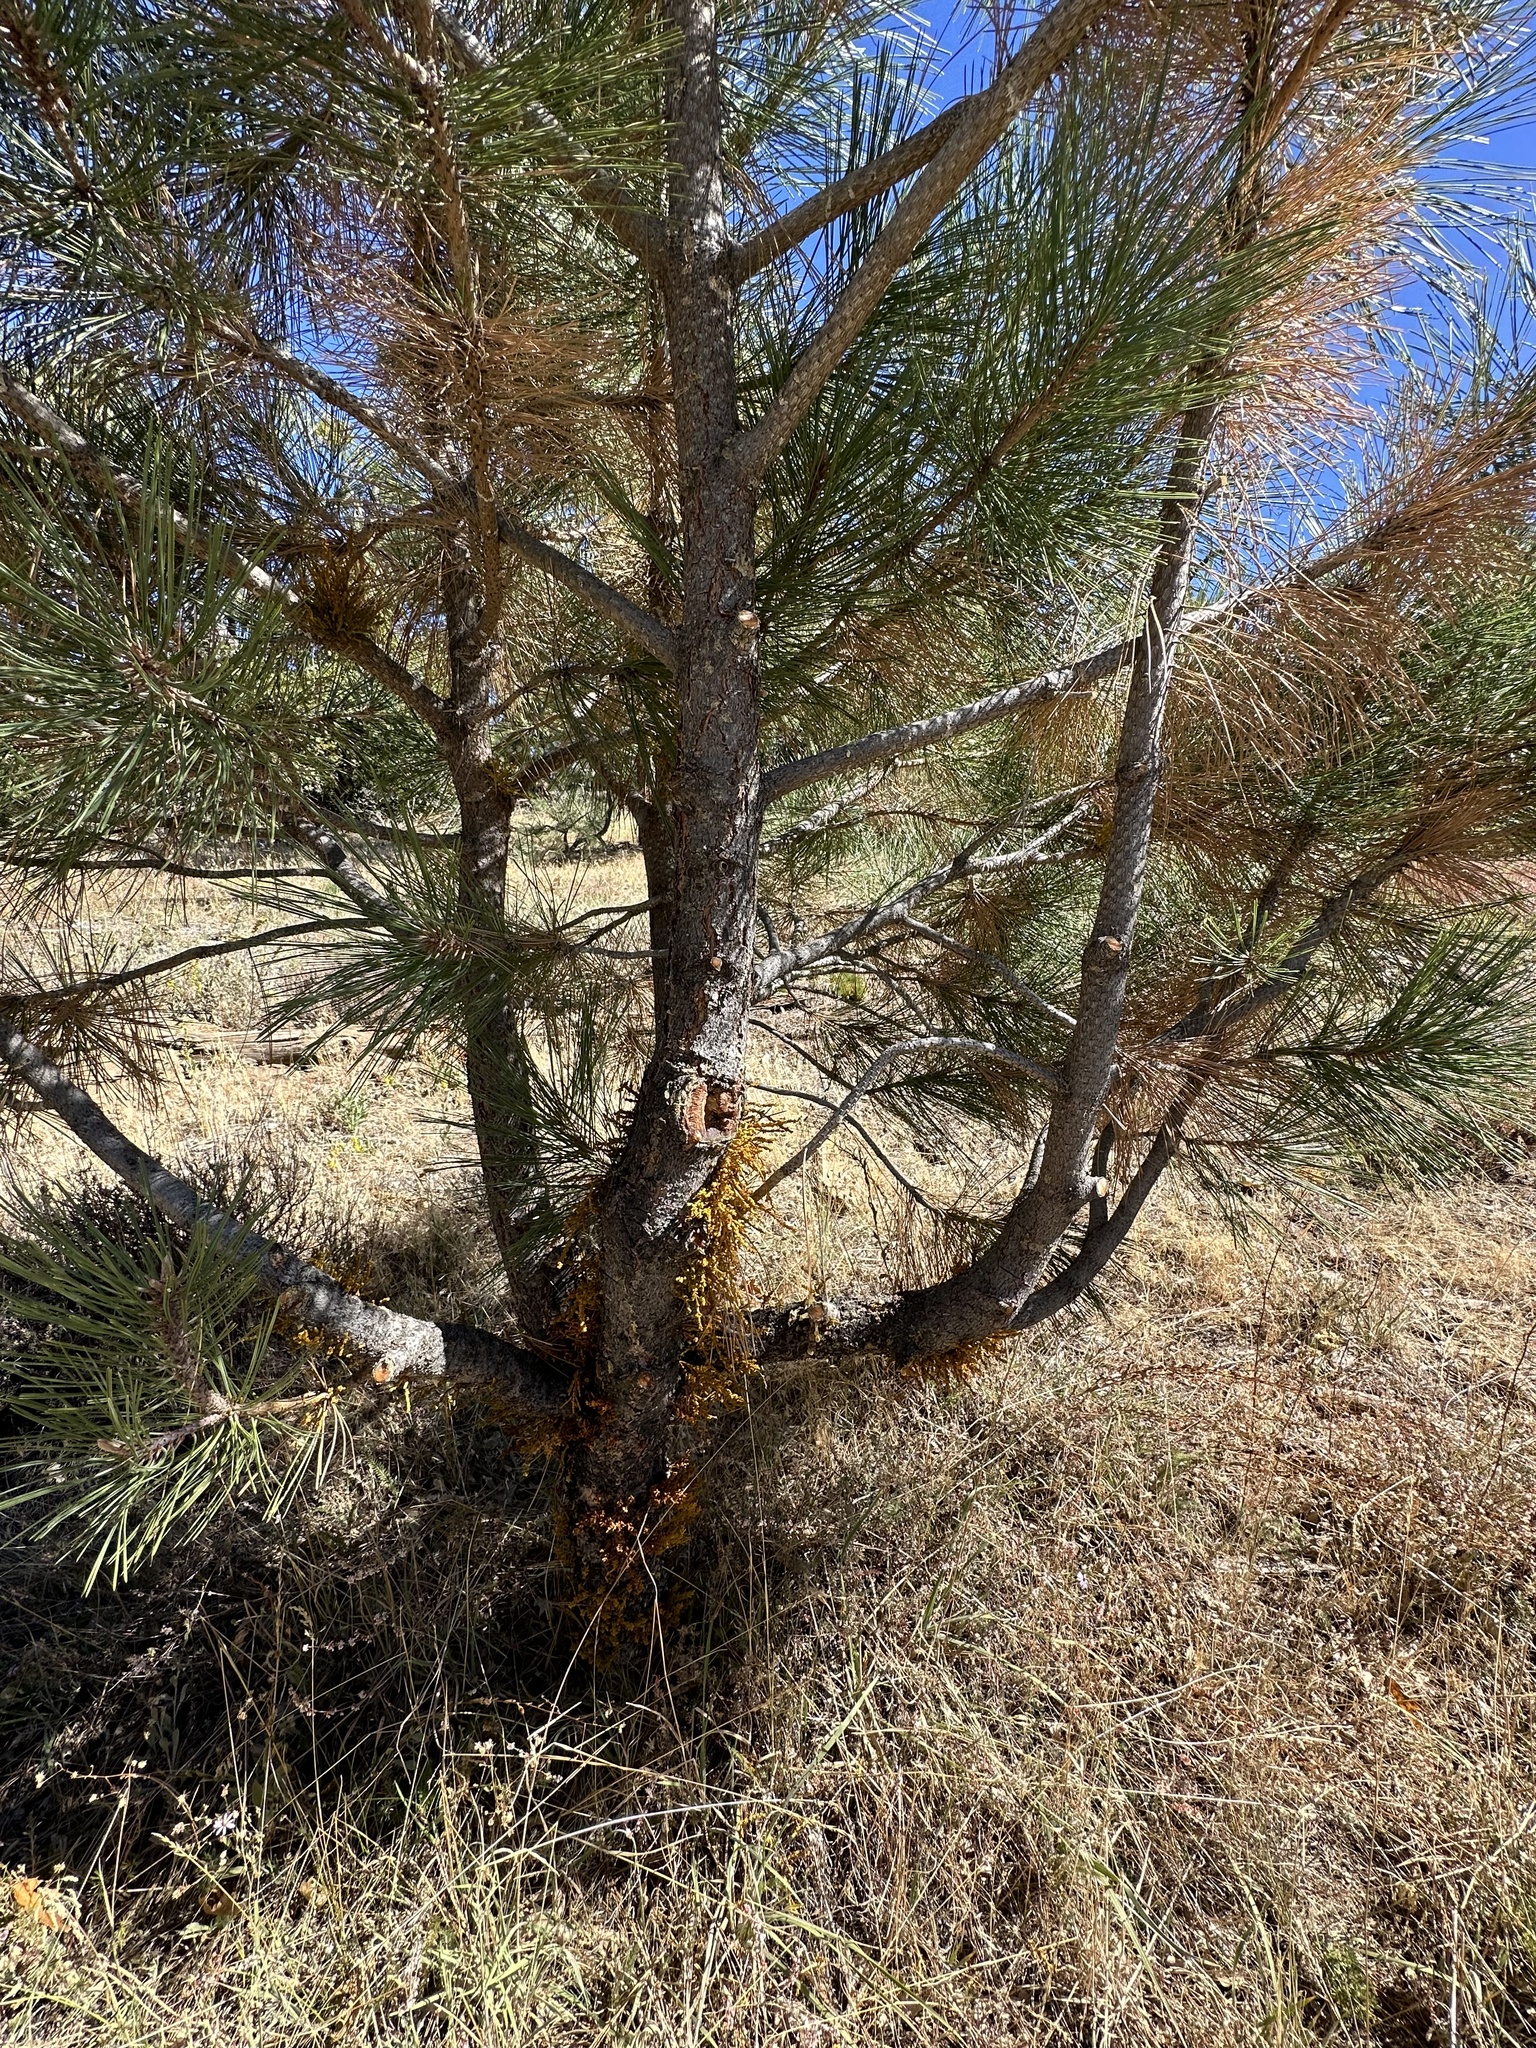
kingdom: Plantae
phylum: Tracheophyta
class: Magnoliopsida
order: Santalales
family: Viscaceae
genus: Arceuthobium
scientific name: Arceuthobium campylopodum
